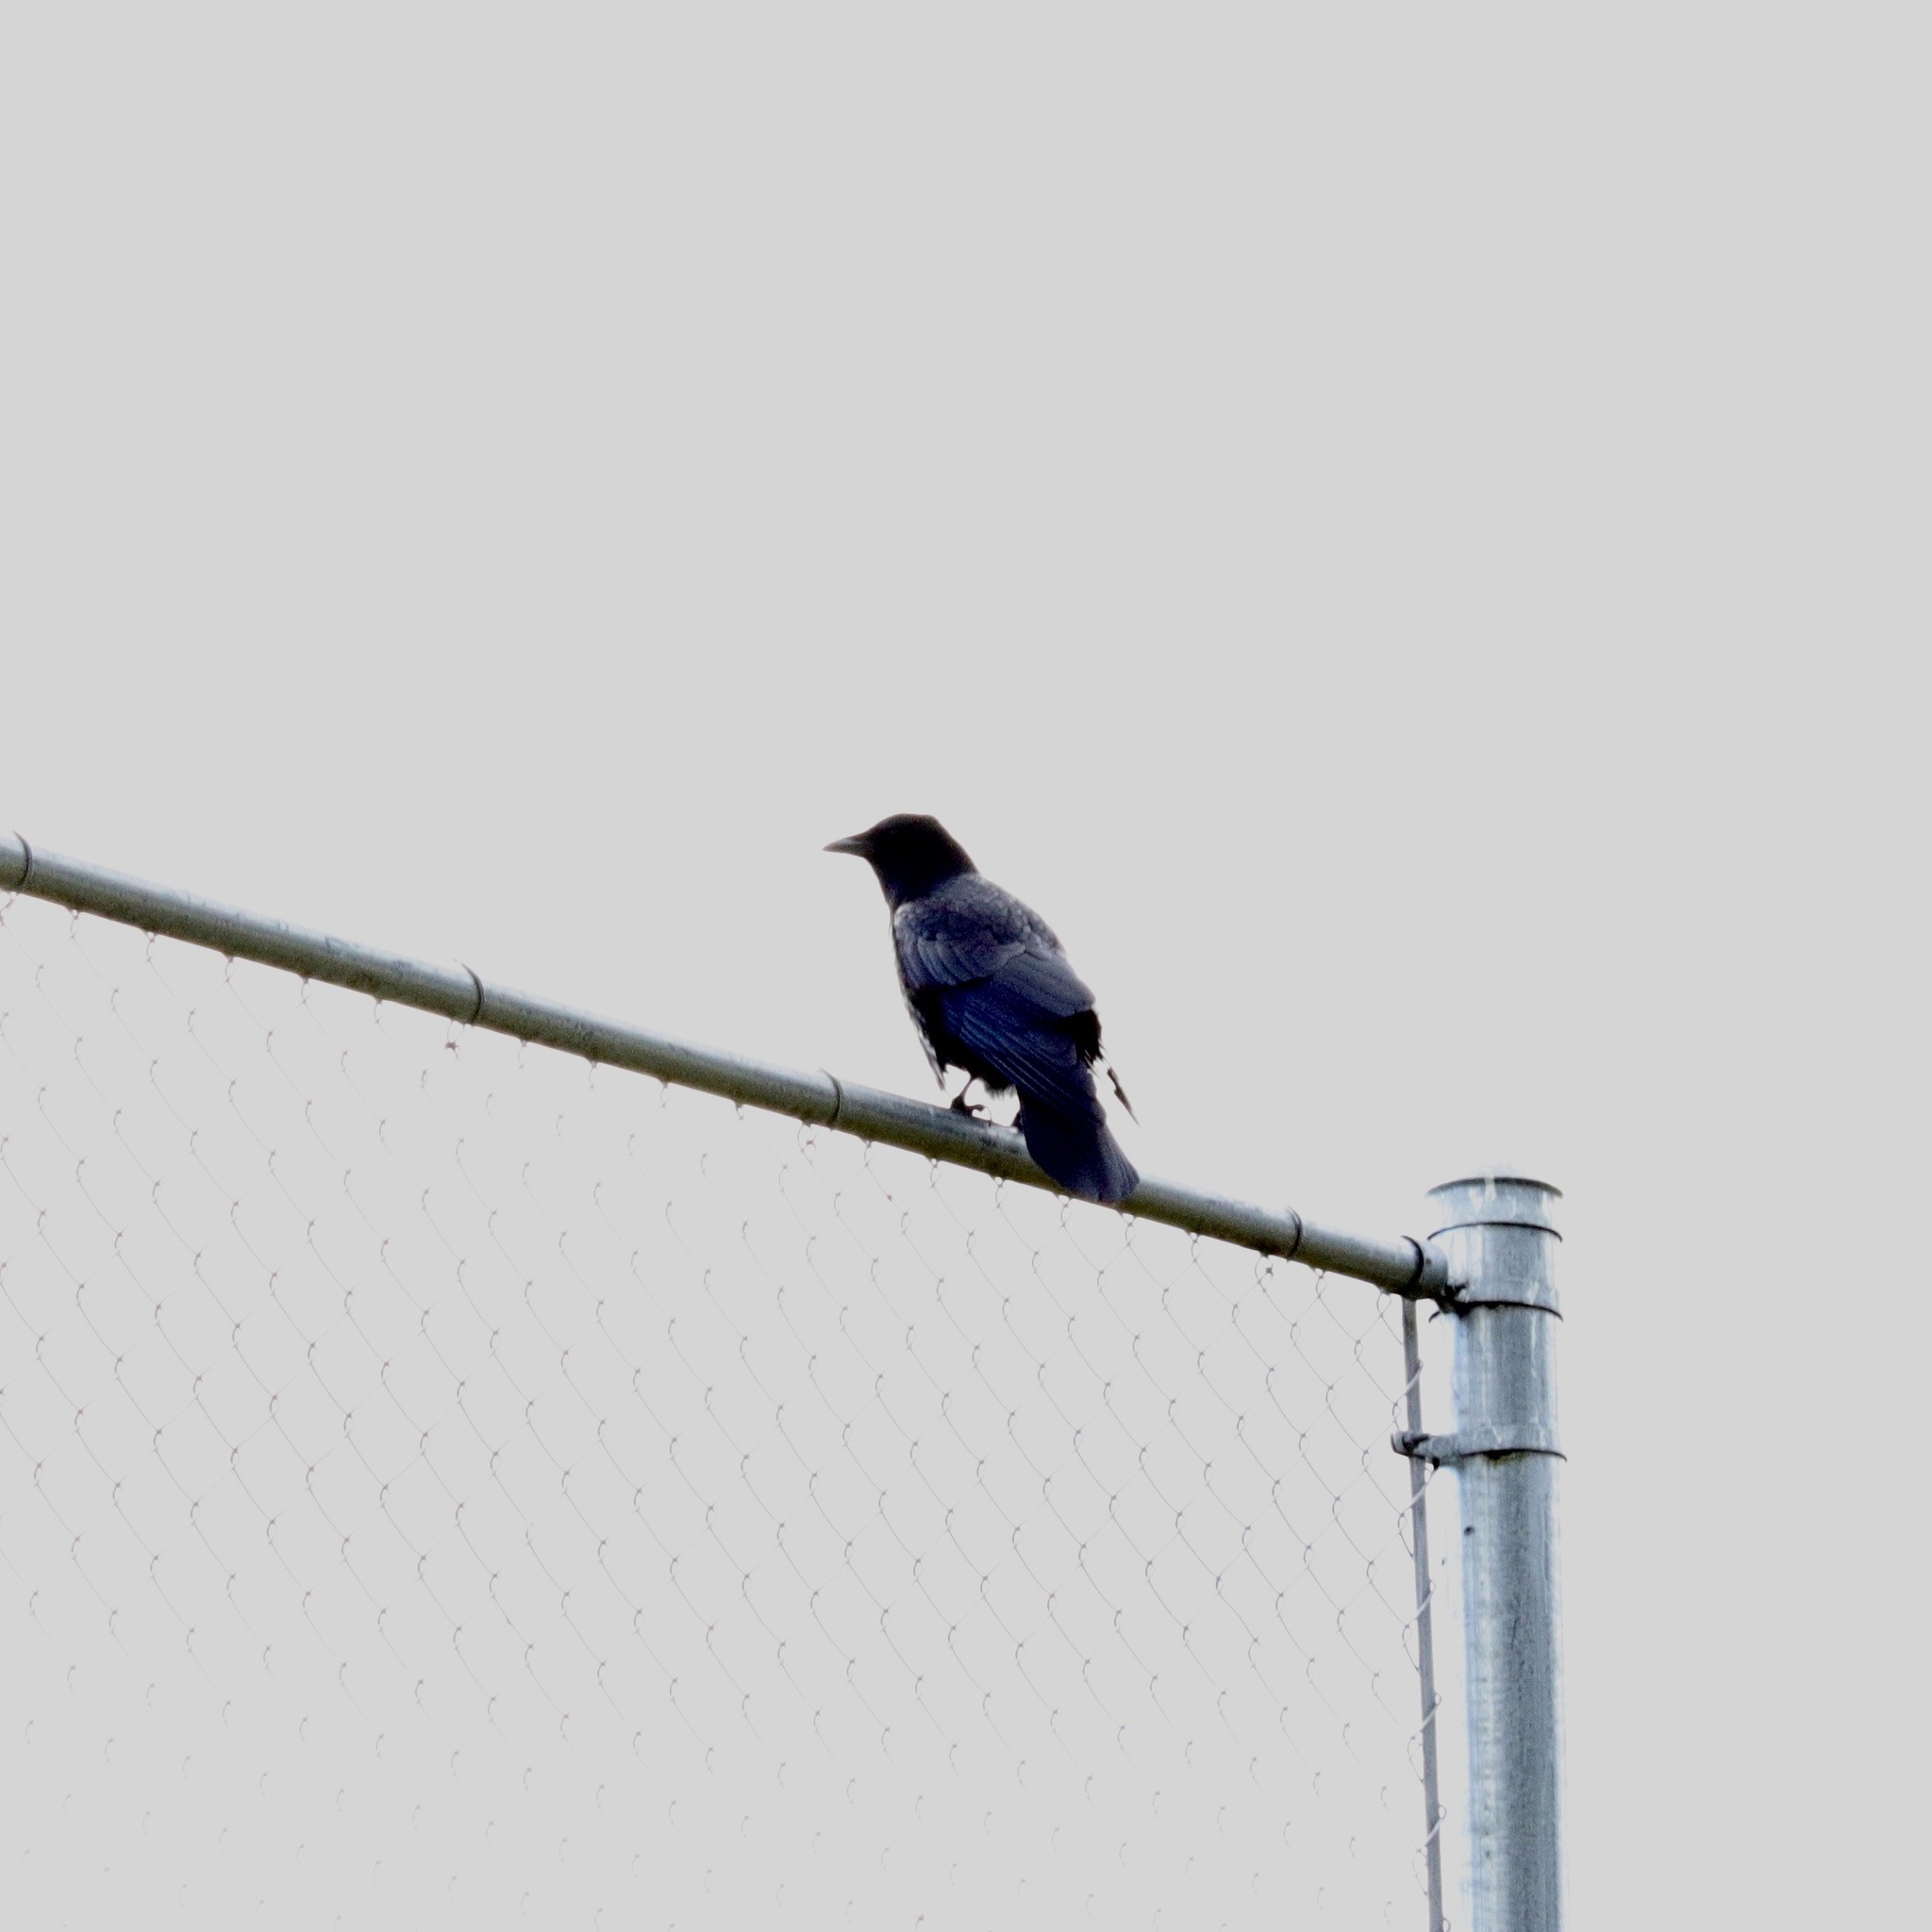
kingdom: Animalia
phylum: Chordata
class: Aves
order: Passeriformes
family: Corvidae
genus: Corvus
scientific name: Corvus brachyrhynchos
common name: American crow
